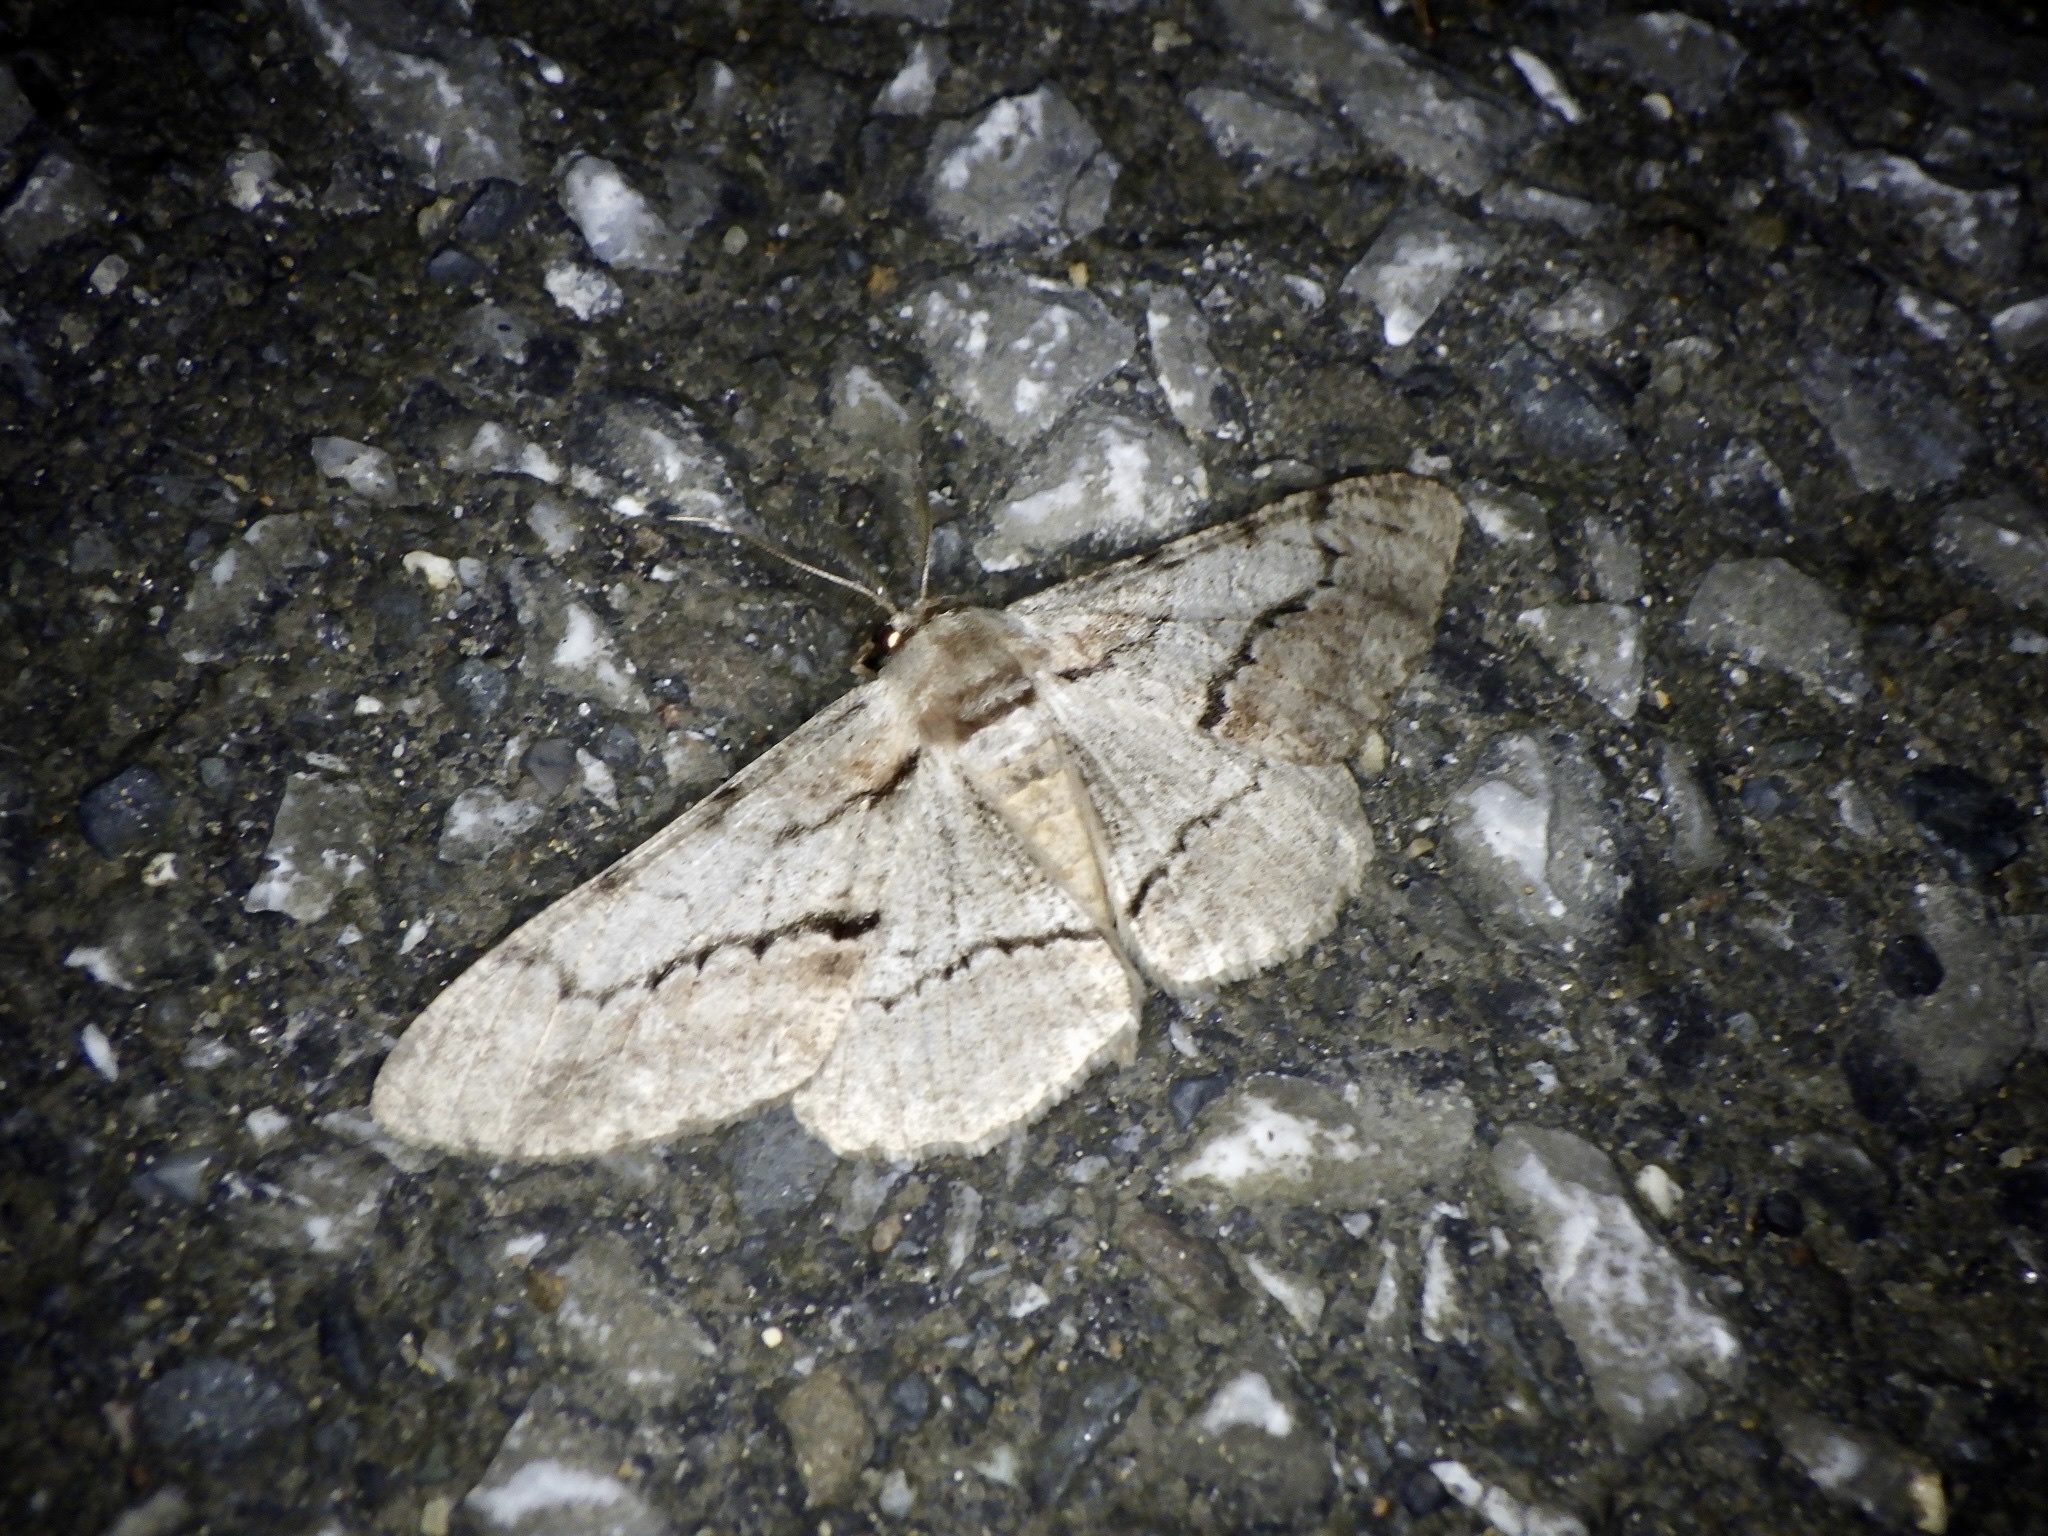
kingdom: Animalia
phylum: Arthropoda
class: Insecta
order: Lepidoptera
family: Geometridae
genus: Phthonosema
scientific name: Phthonosema tendinosaria
